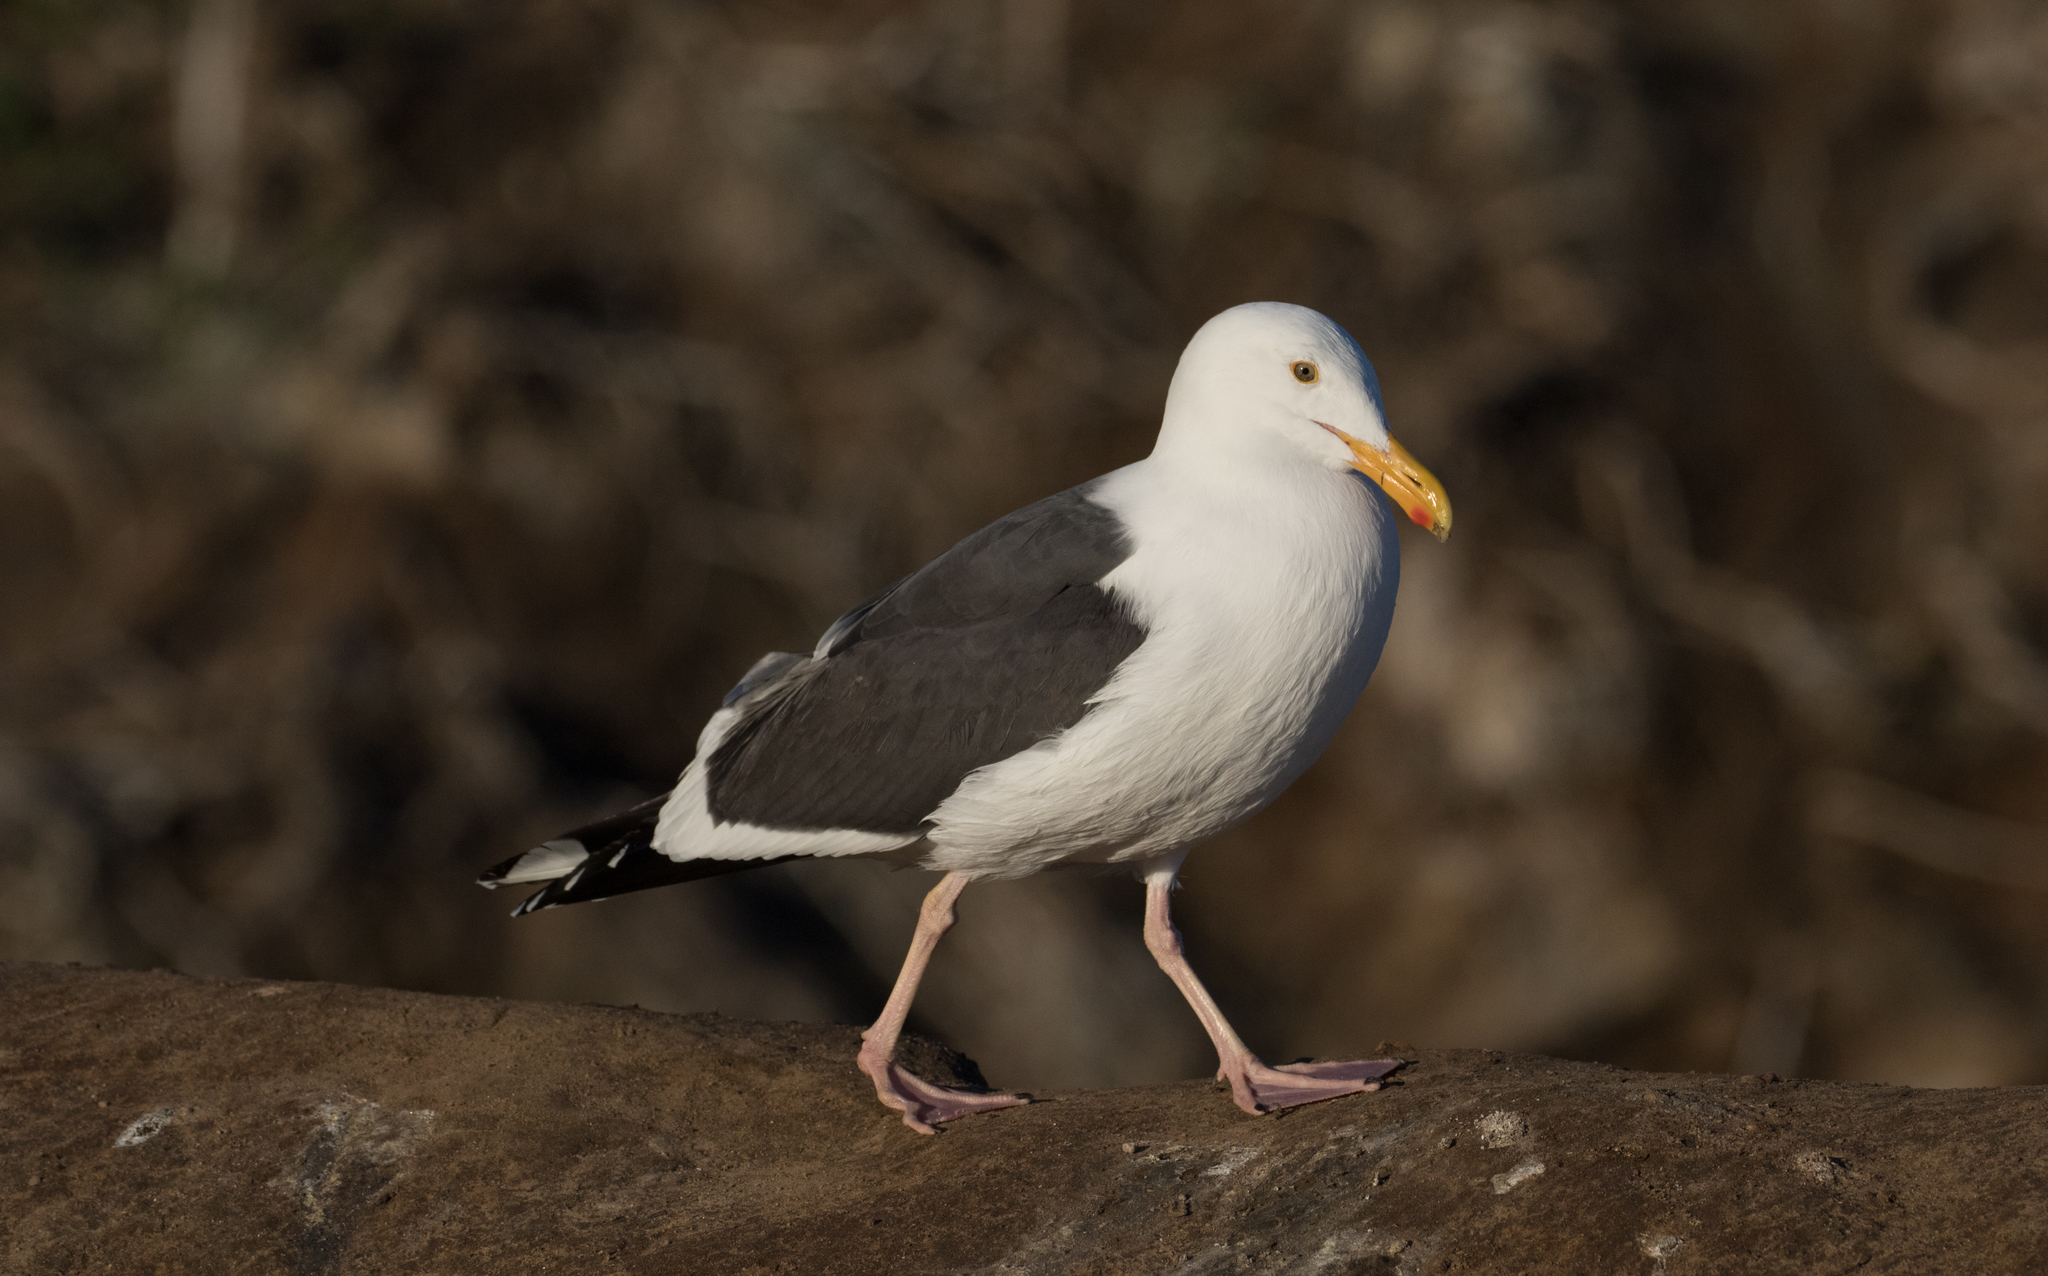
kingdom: Animalia
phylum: Chordata
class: Aves
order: Charadriiformes
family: Laridae
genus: Larus
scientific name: Larus occidentalis
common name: Western gull
